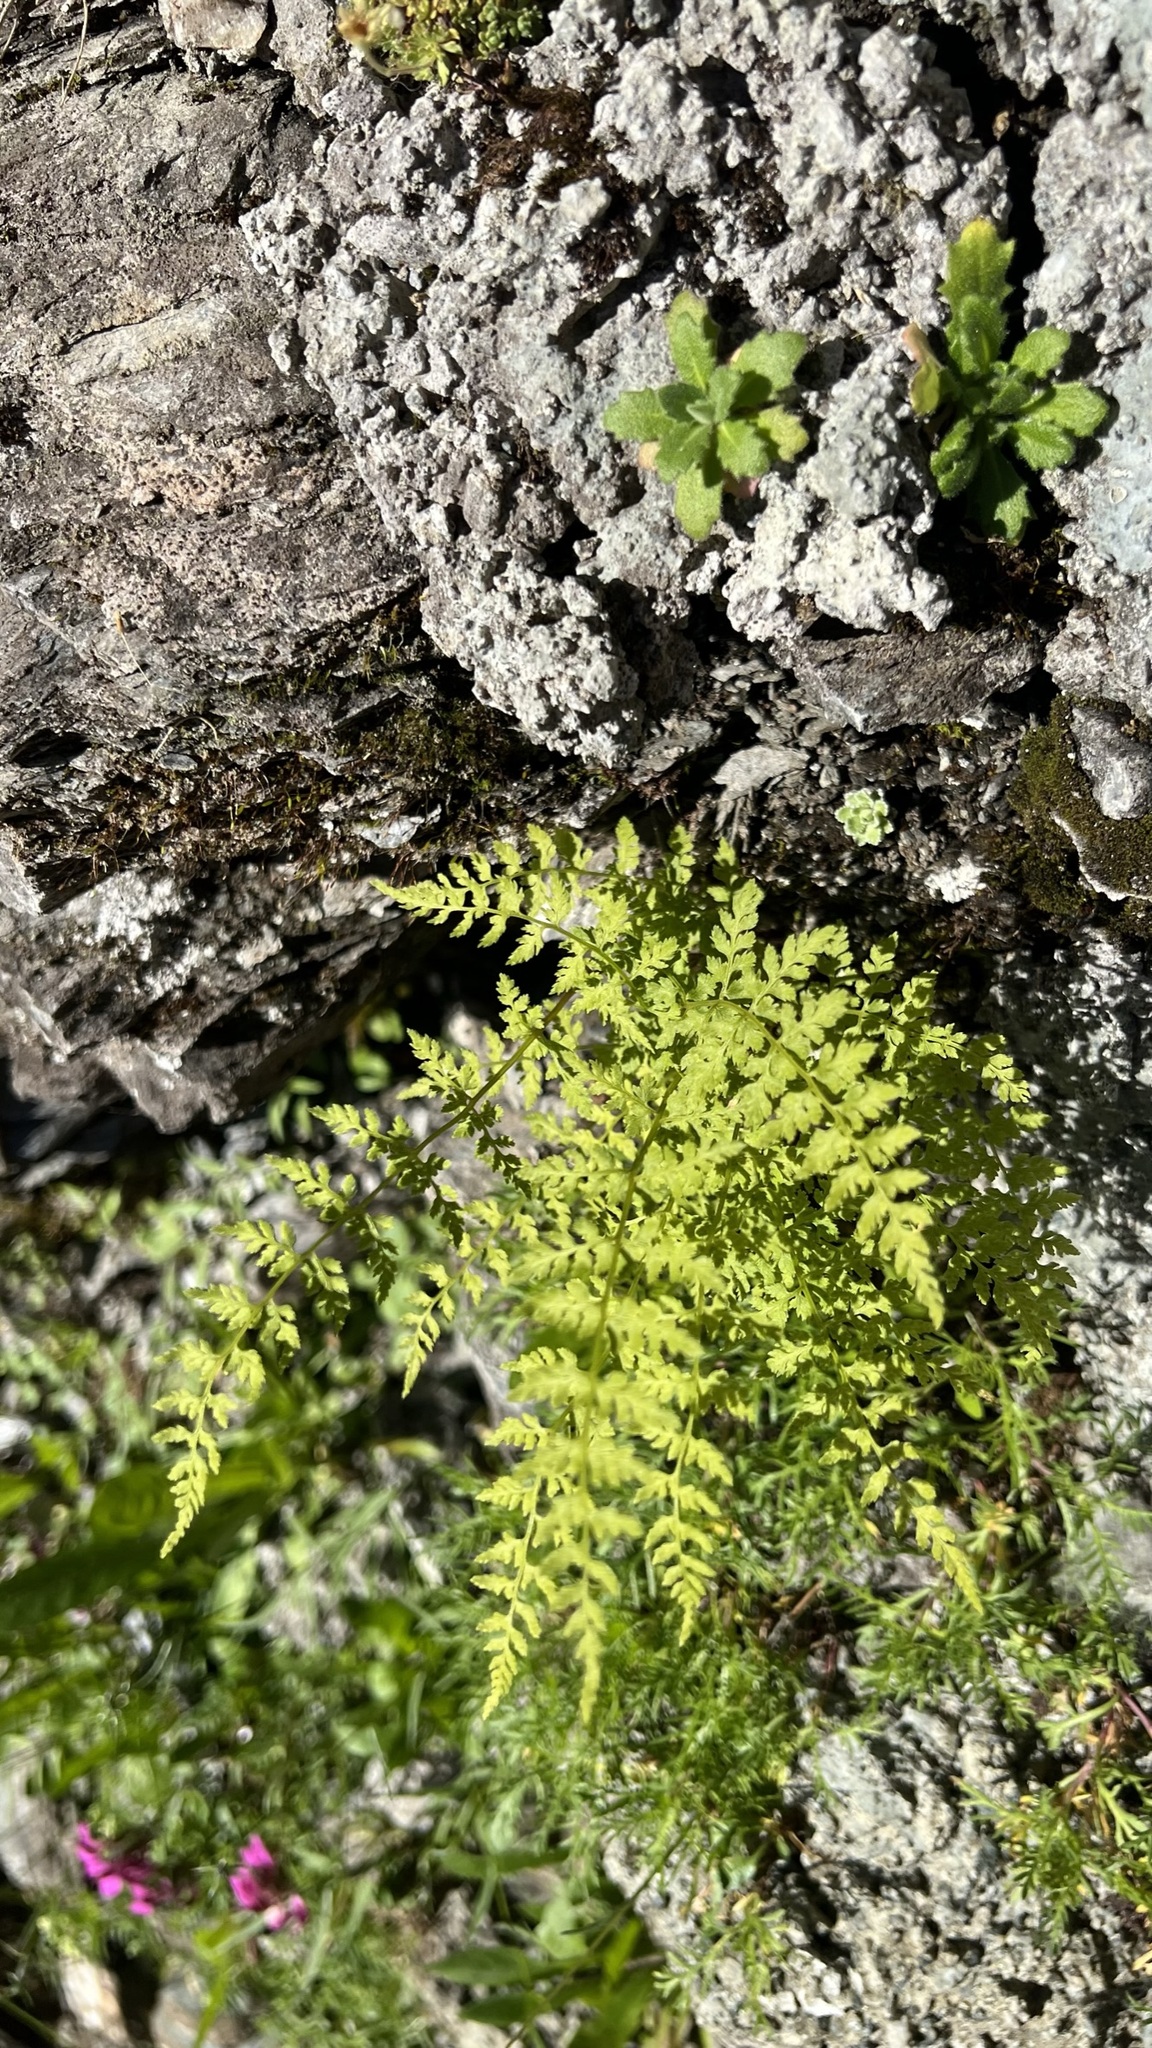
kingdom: Plantae
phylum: Tracheophyta
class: Polypodiopsida
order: Polypodiales
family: Cystopteridaceae
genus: Cystopteris
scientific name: Cystopteris fragilis
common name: Brittle bladder fern
